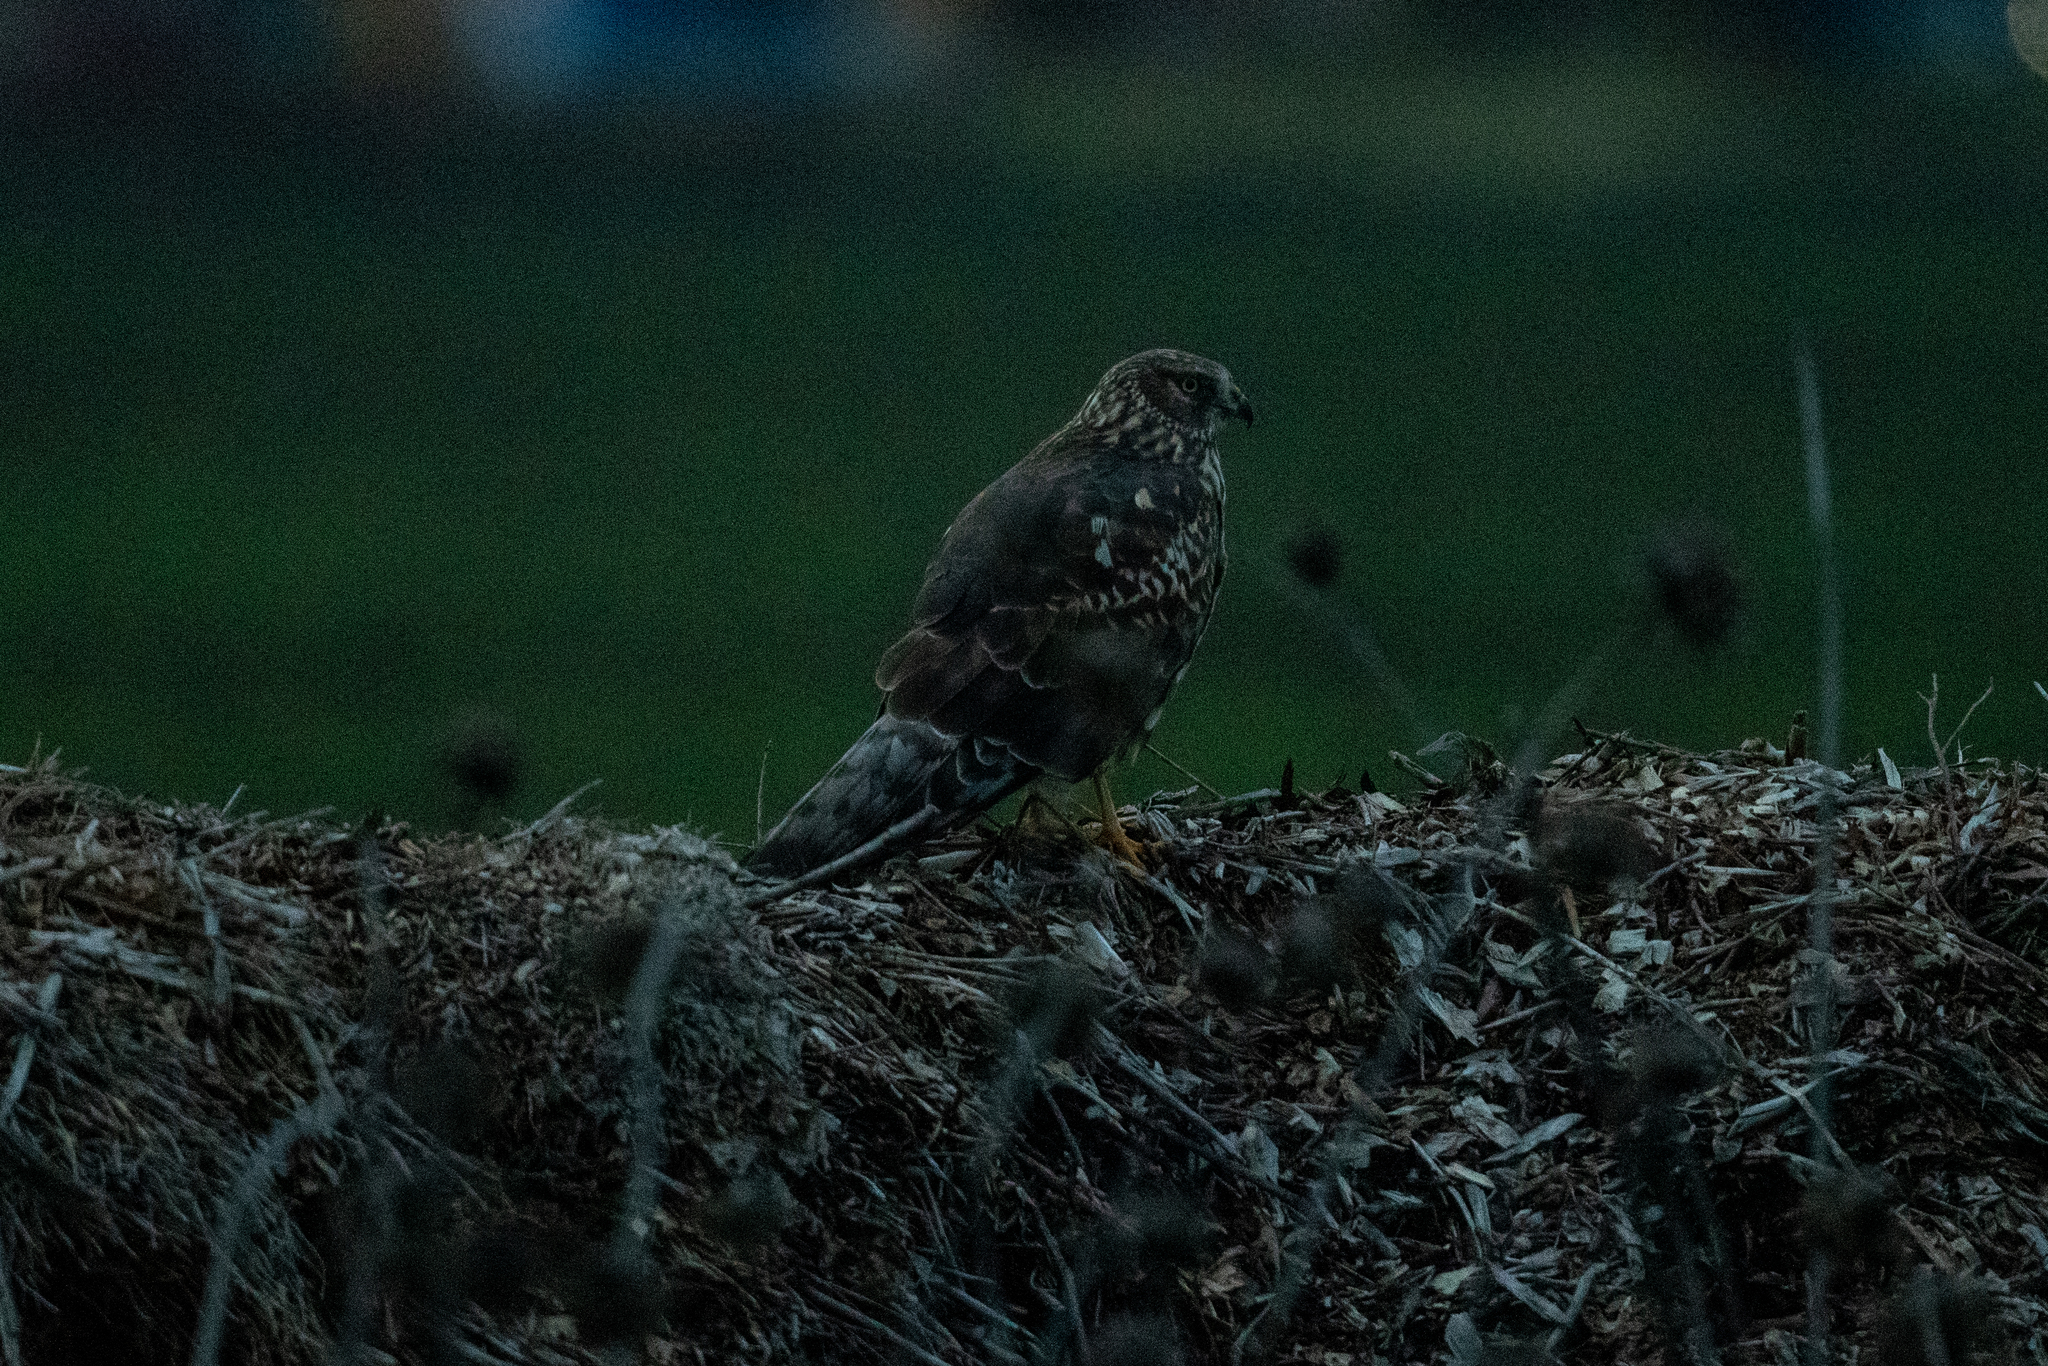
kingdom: Animalia
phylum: Chordata
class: Aves
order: Accipitriformes
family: Accipitridae
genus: Circus
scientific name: Circus cyaneus
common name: Hen harrier
